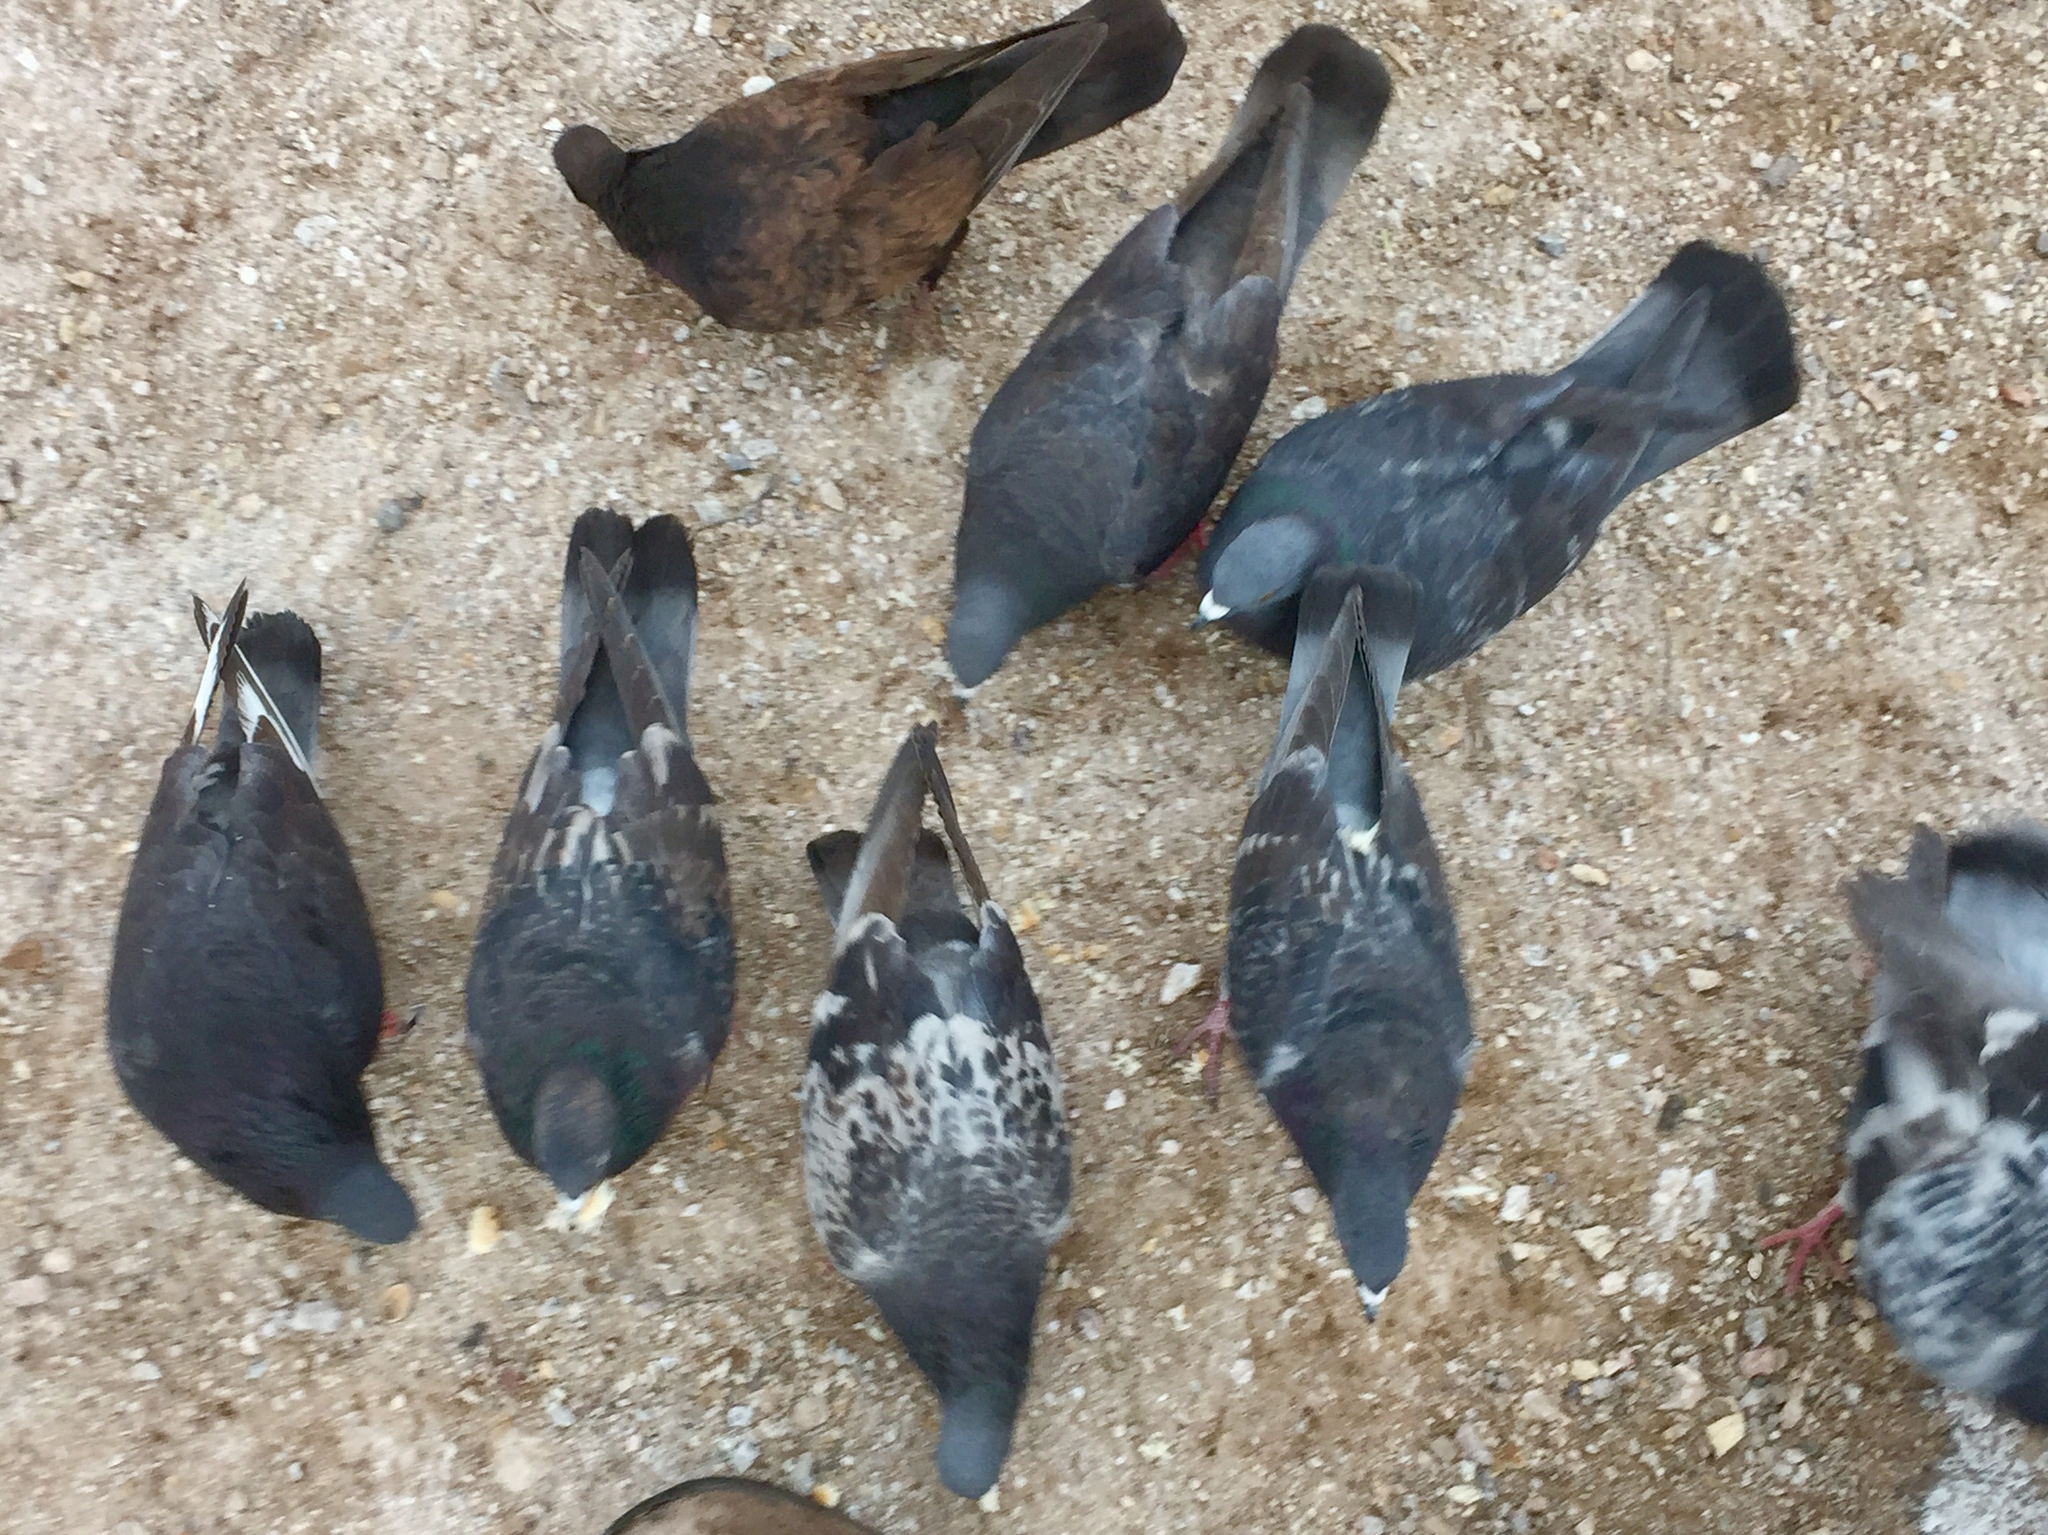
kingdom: Animalia
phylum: Chordata
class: Aves
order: Columbiformes
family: Columbidae
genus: Columba
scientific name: Columba livia
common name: Rock pigeon
